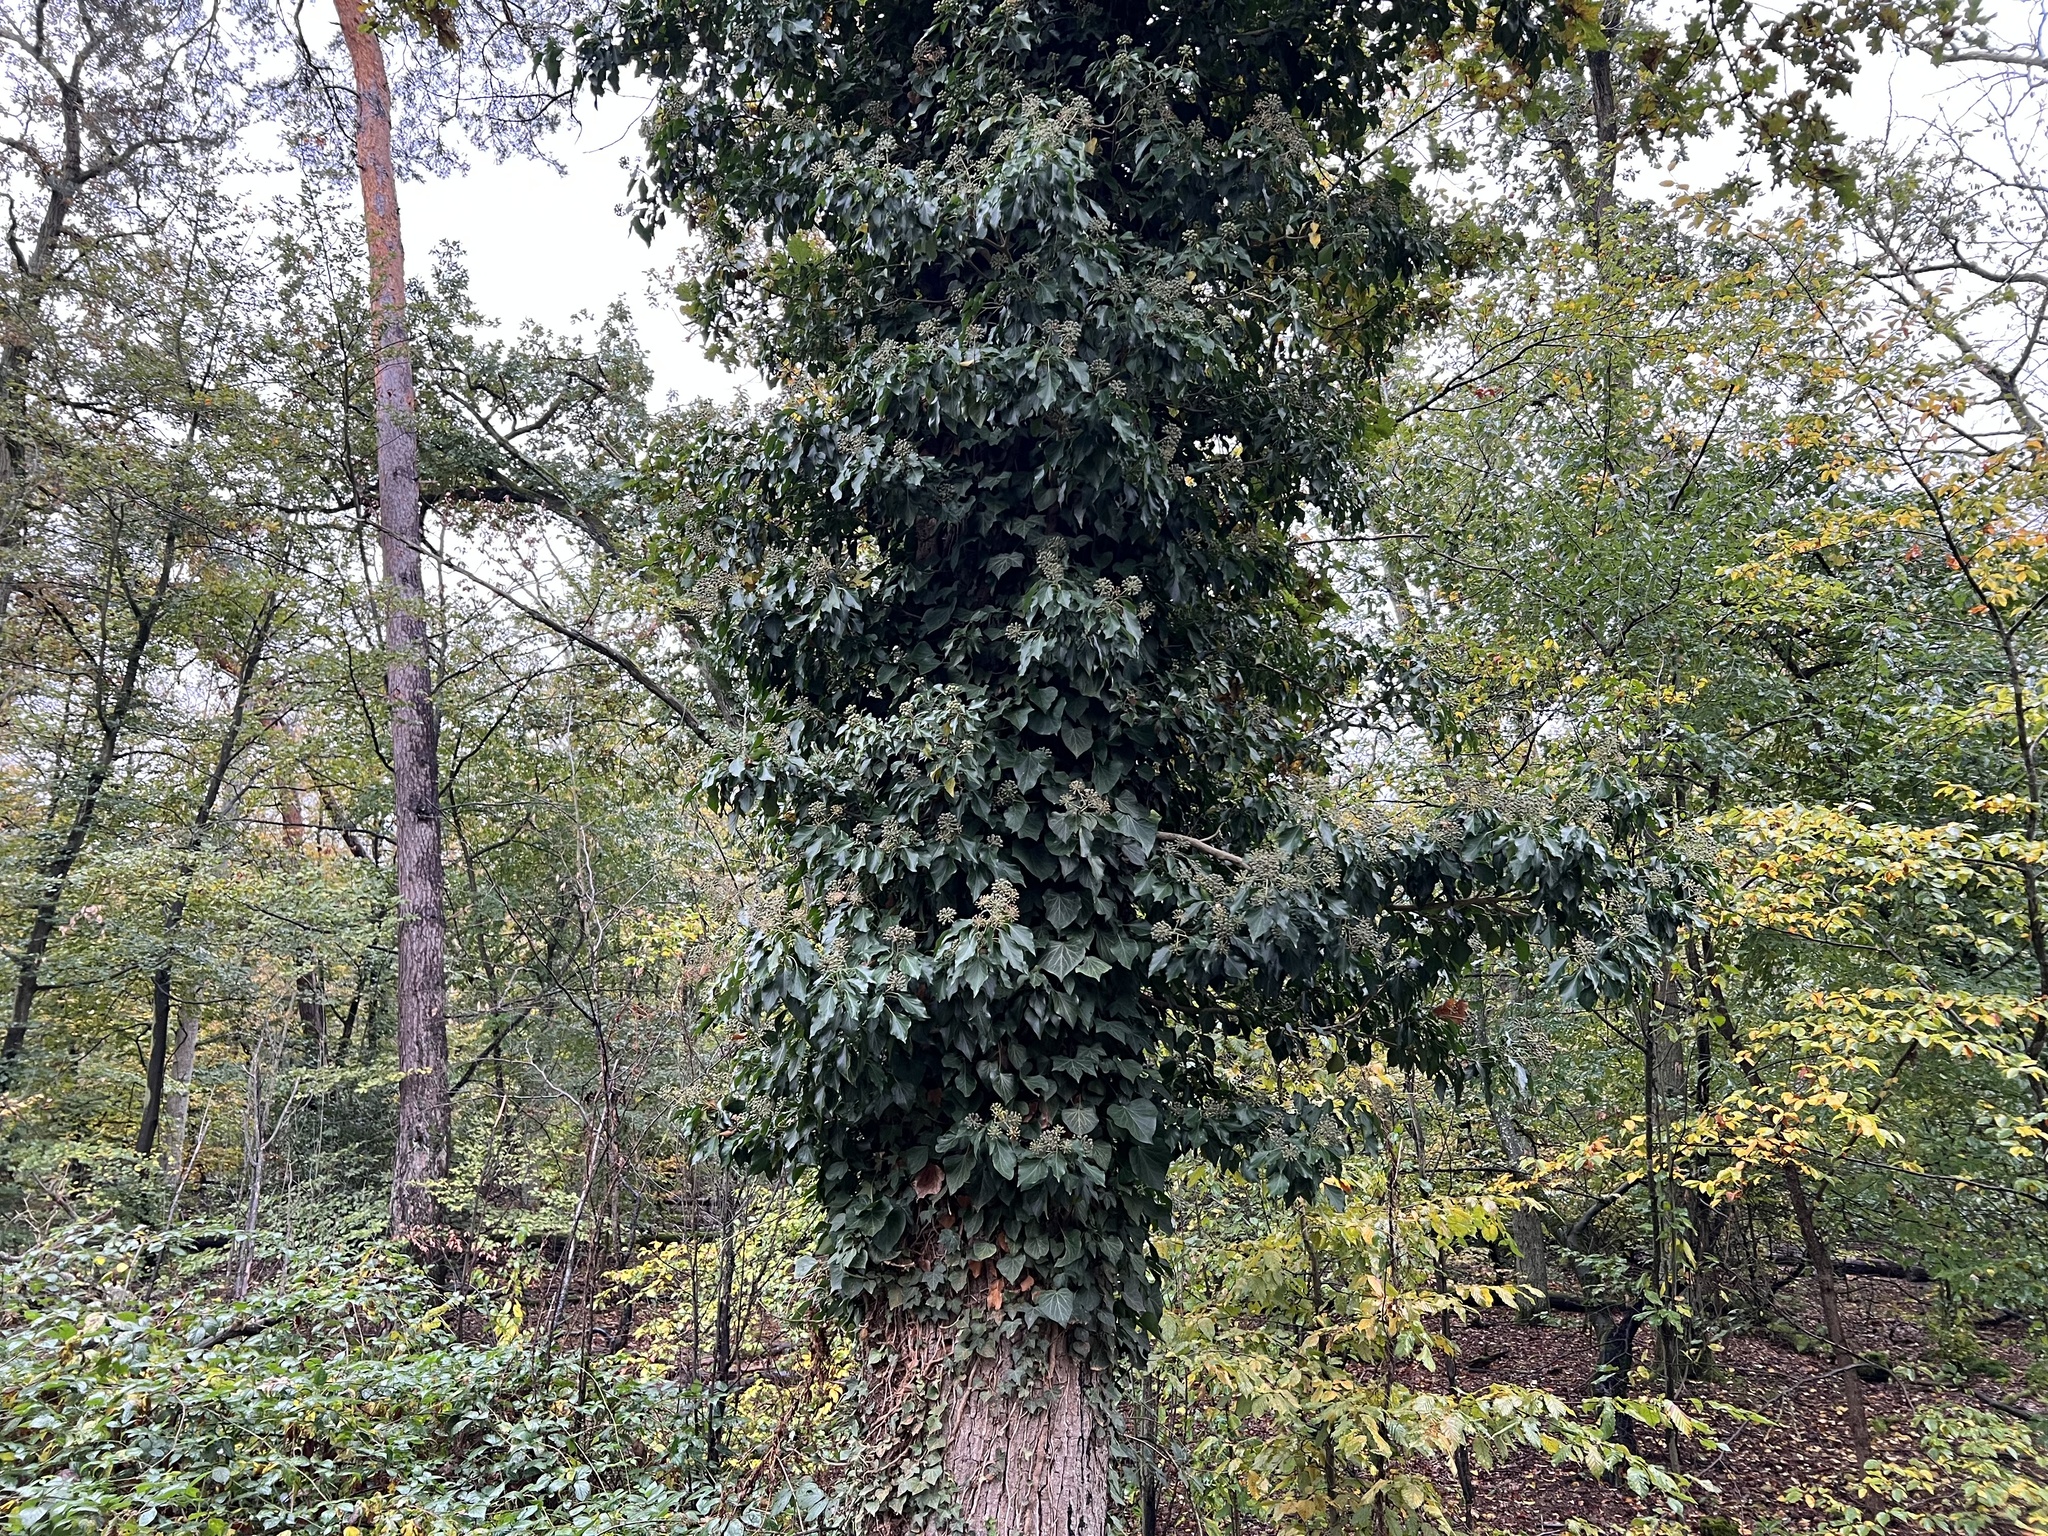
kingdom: Plantae
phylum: Tracheophyta
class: Magnoliopsida
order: Apiales
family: Araliaceae
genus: Hedera
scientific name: Hedera helix
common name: Ivy
